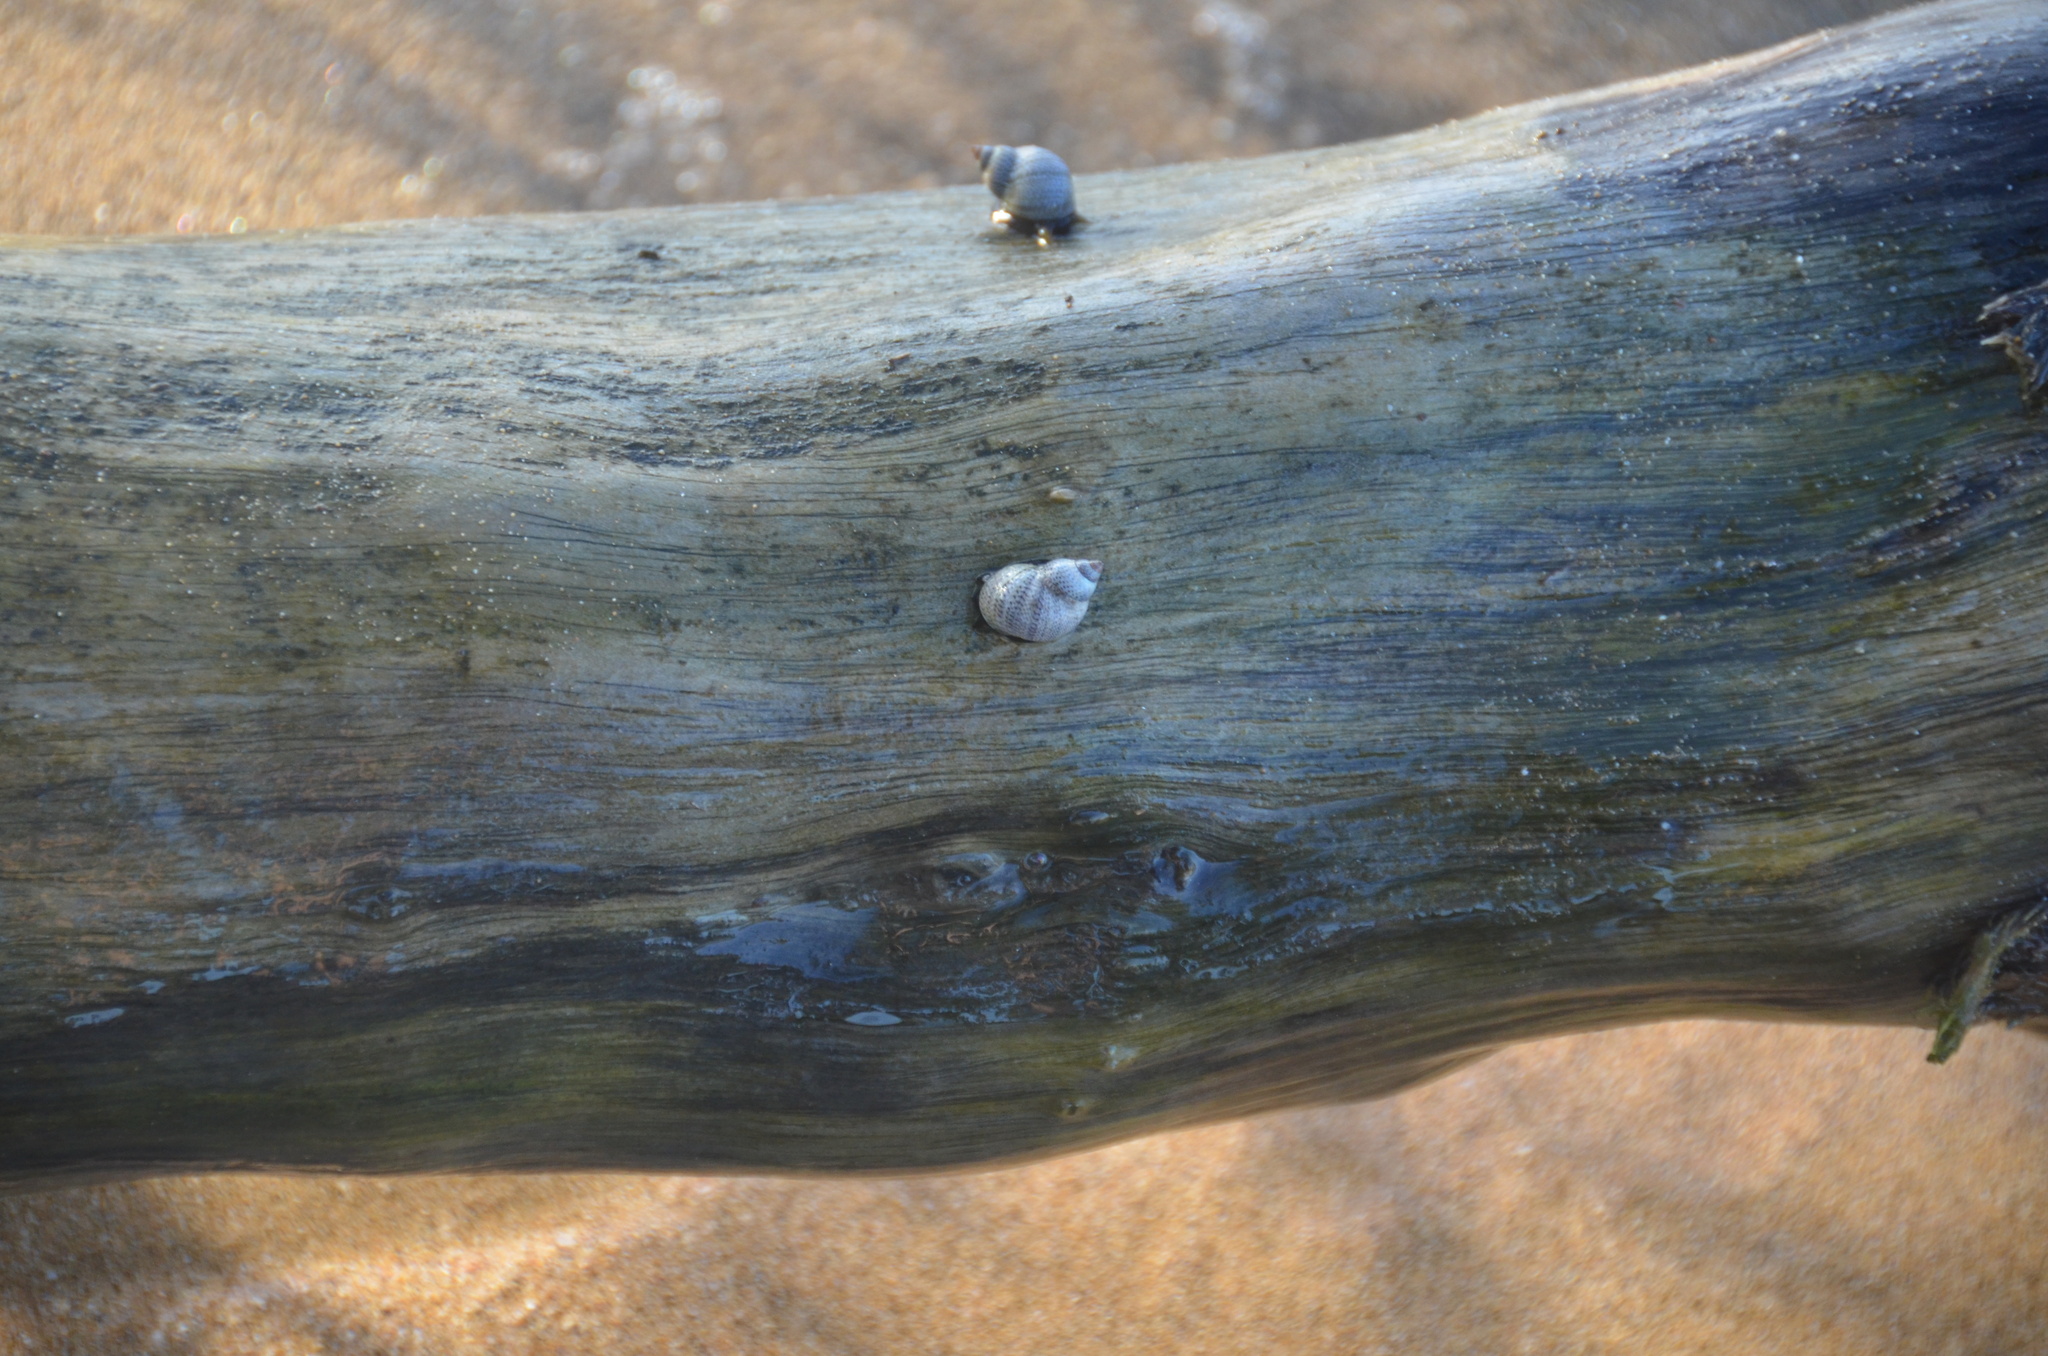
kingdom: Animalia
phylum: Mollusca
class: Gastropoda
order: Littorinimorpha
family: Littorinidae
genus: Littoraria
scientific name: Littoraria pintado
